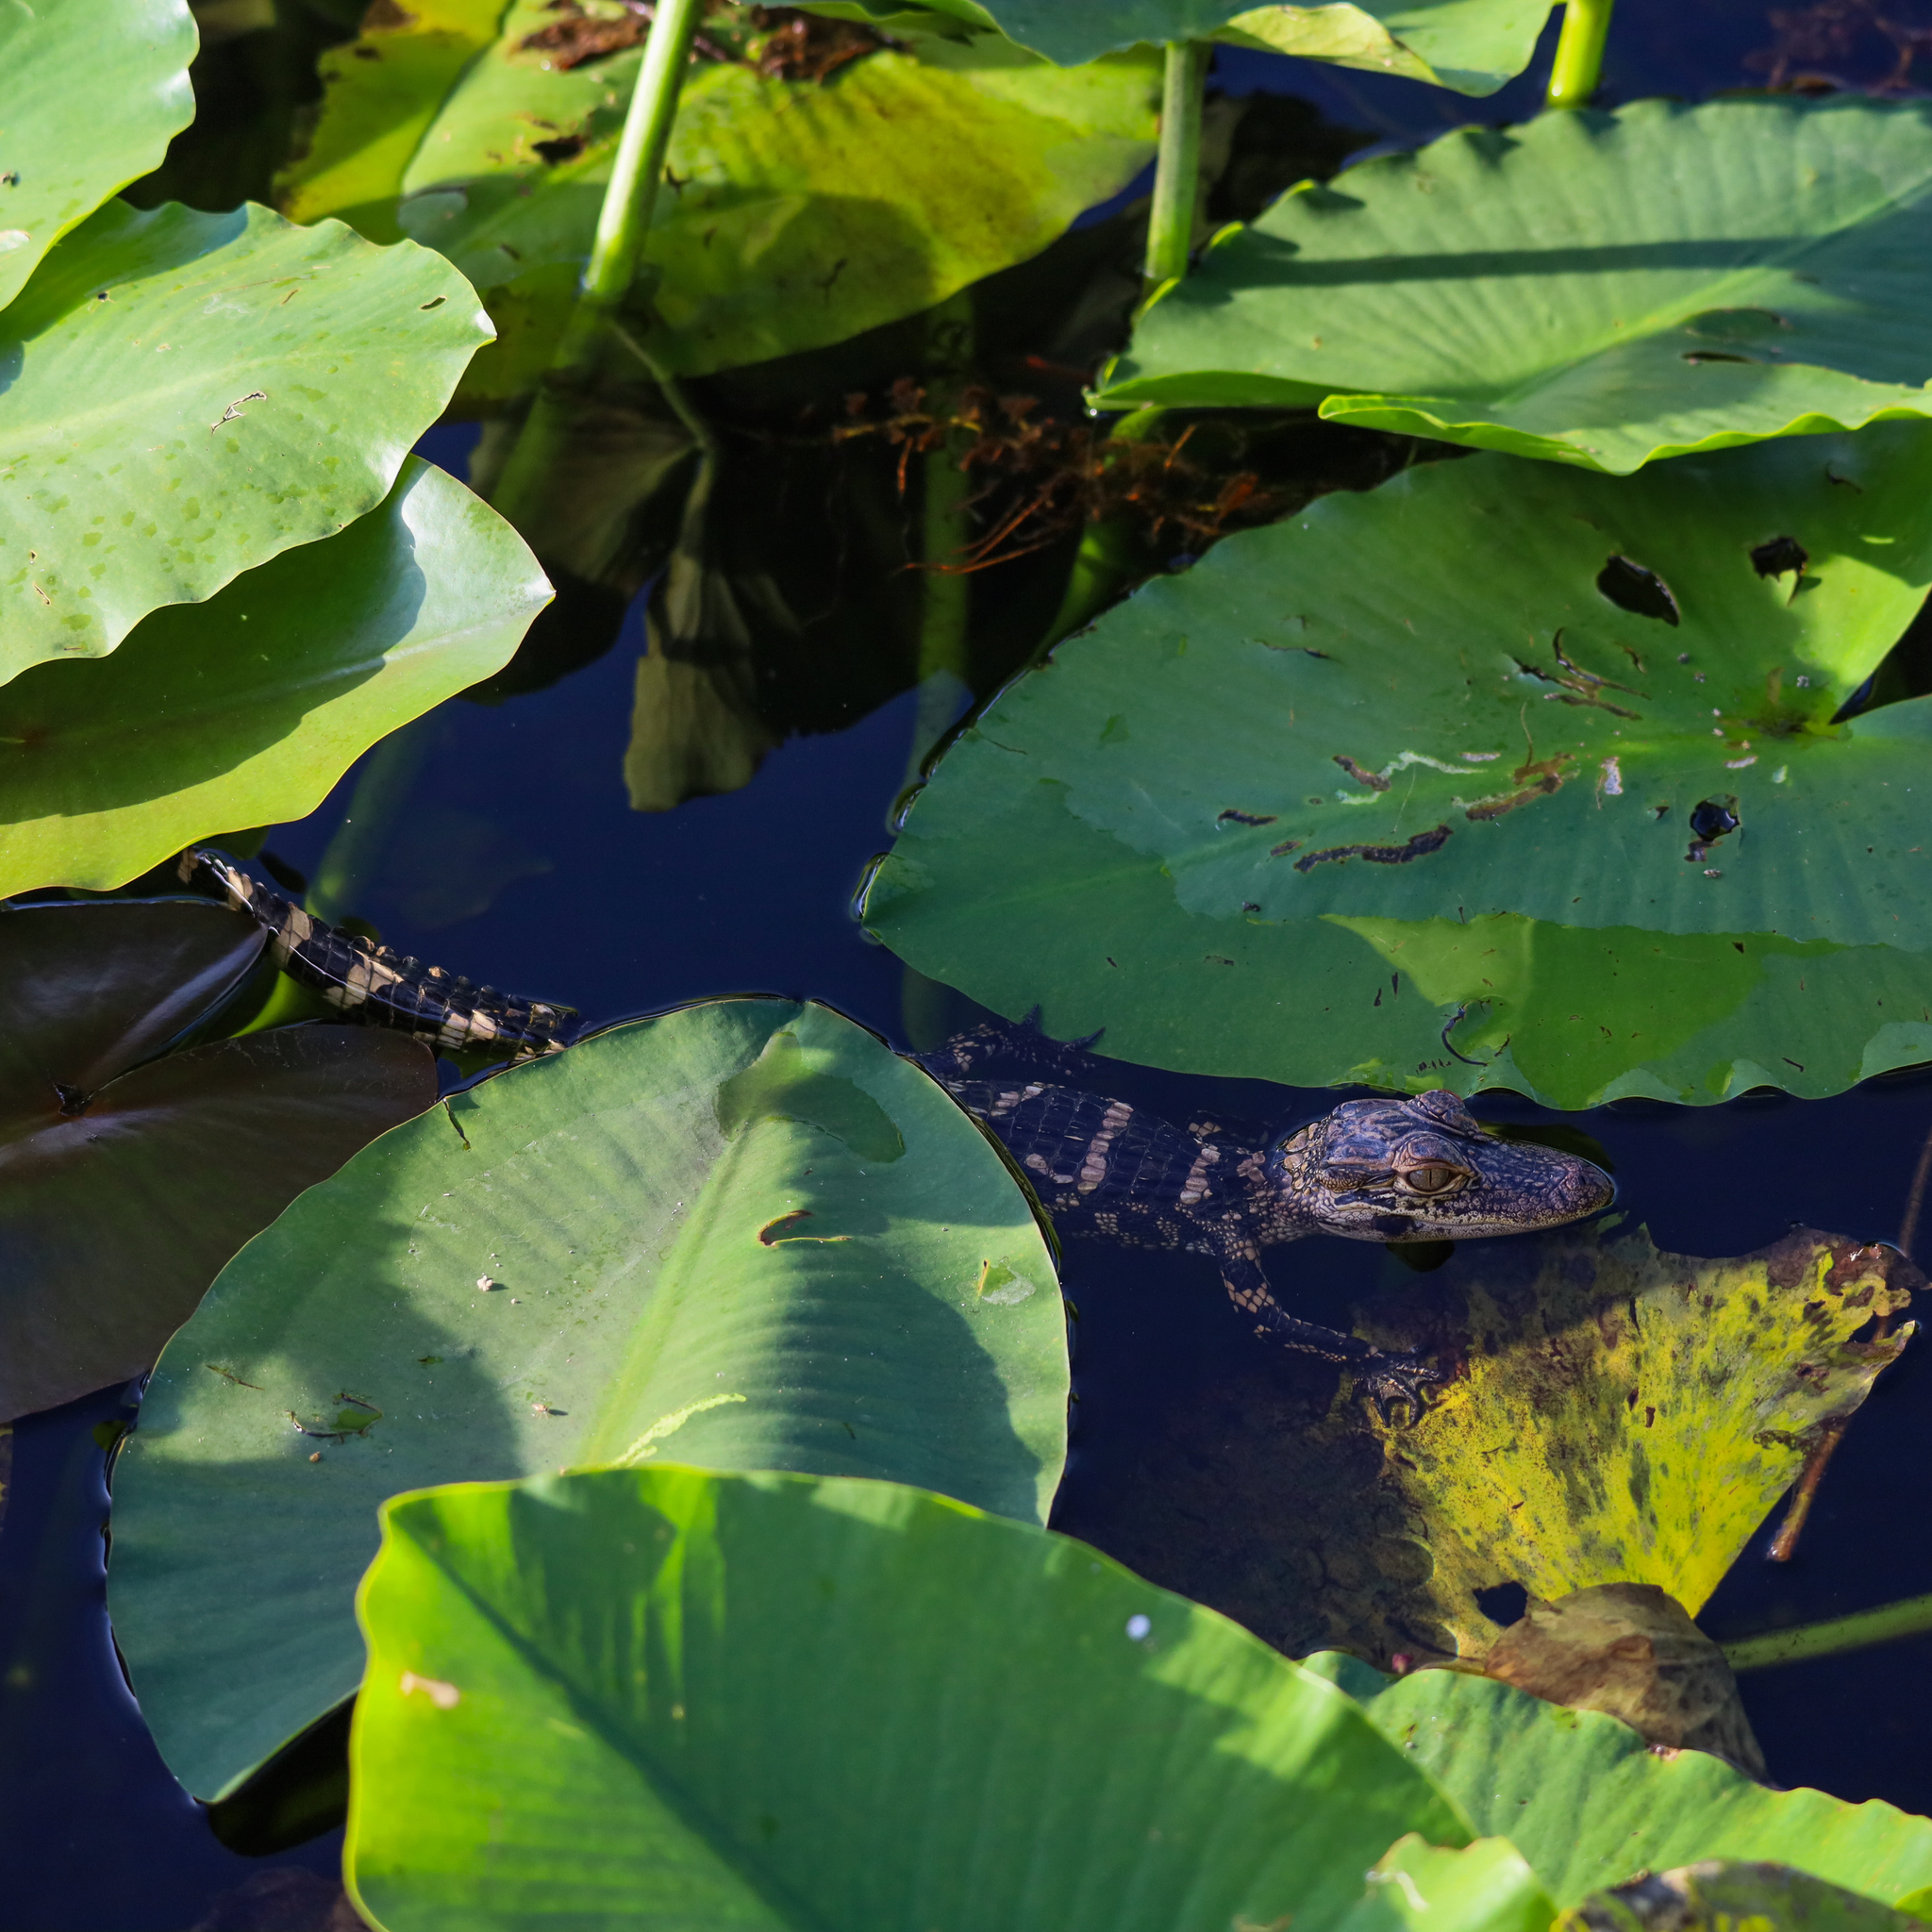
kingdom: Animalia
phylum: Chordata
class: Crocodylia
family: Alligatoridae
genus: Alligator
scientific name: Alligator mississippiensis
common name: American alligator
